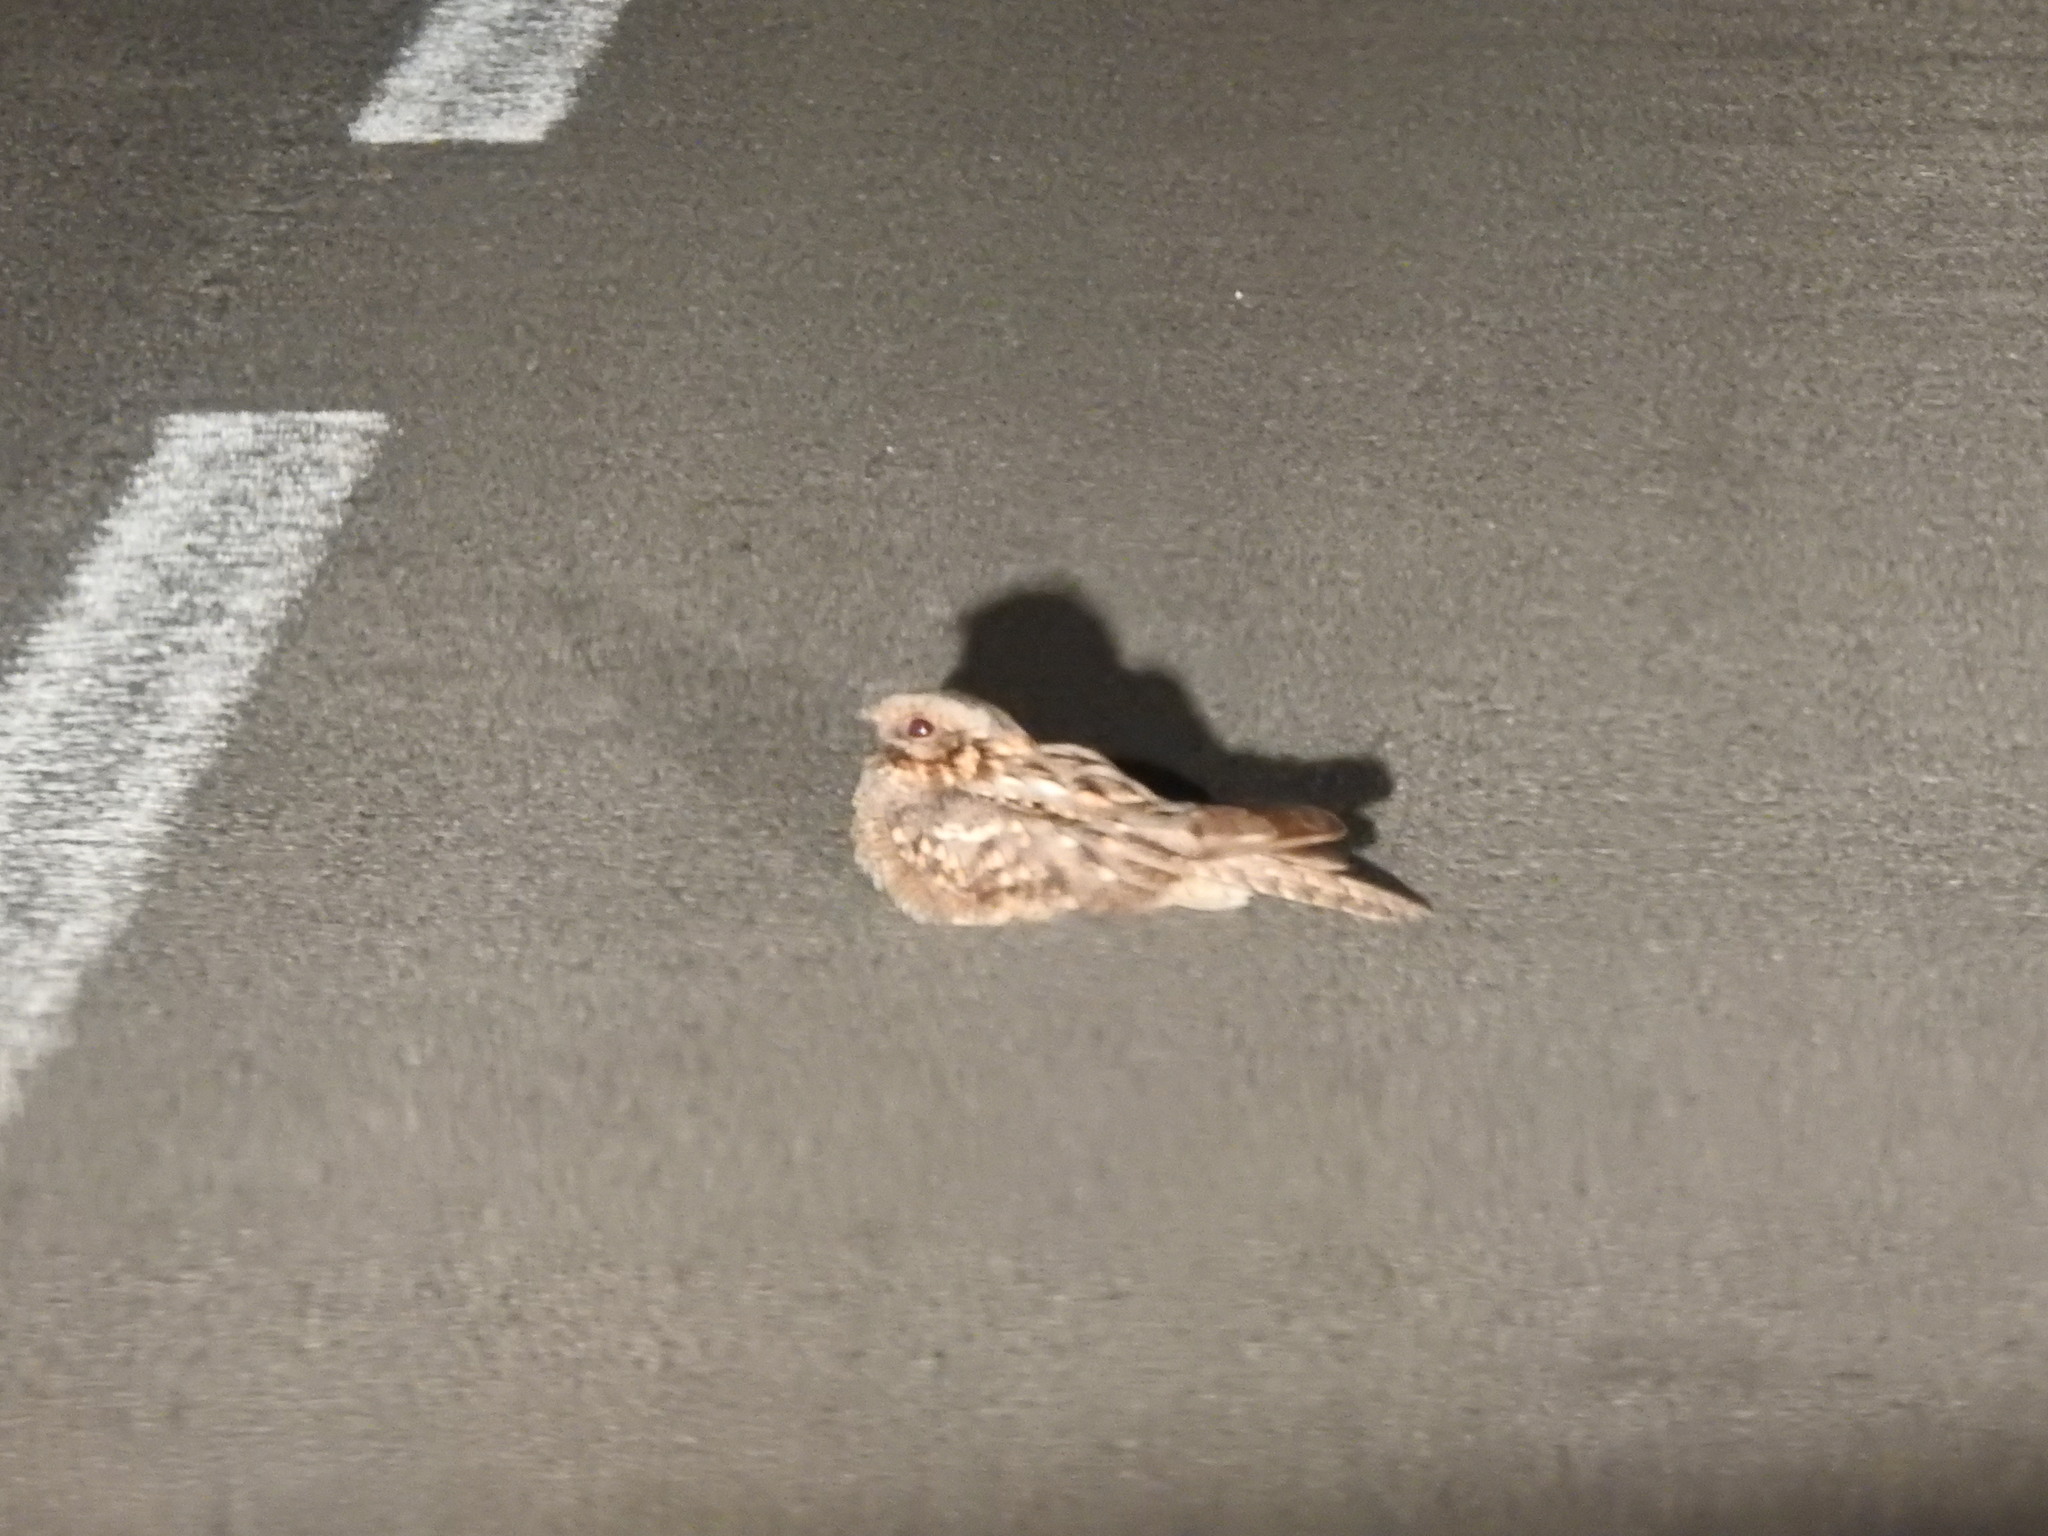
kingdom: Animalia
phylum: Chordata
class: Aves
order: Caprimulgiformes
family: Caprimulgidae
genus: Caprimulgus
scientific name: Caprimulgus ruficollis
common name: Red-necked nightjar
